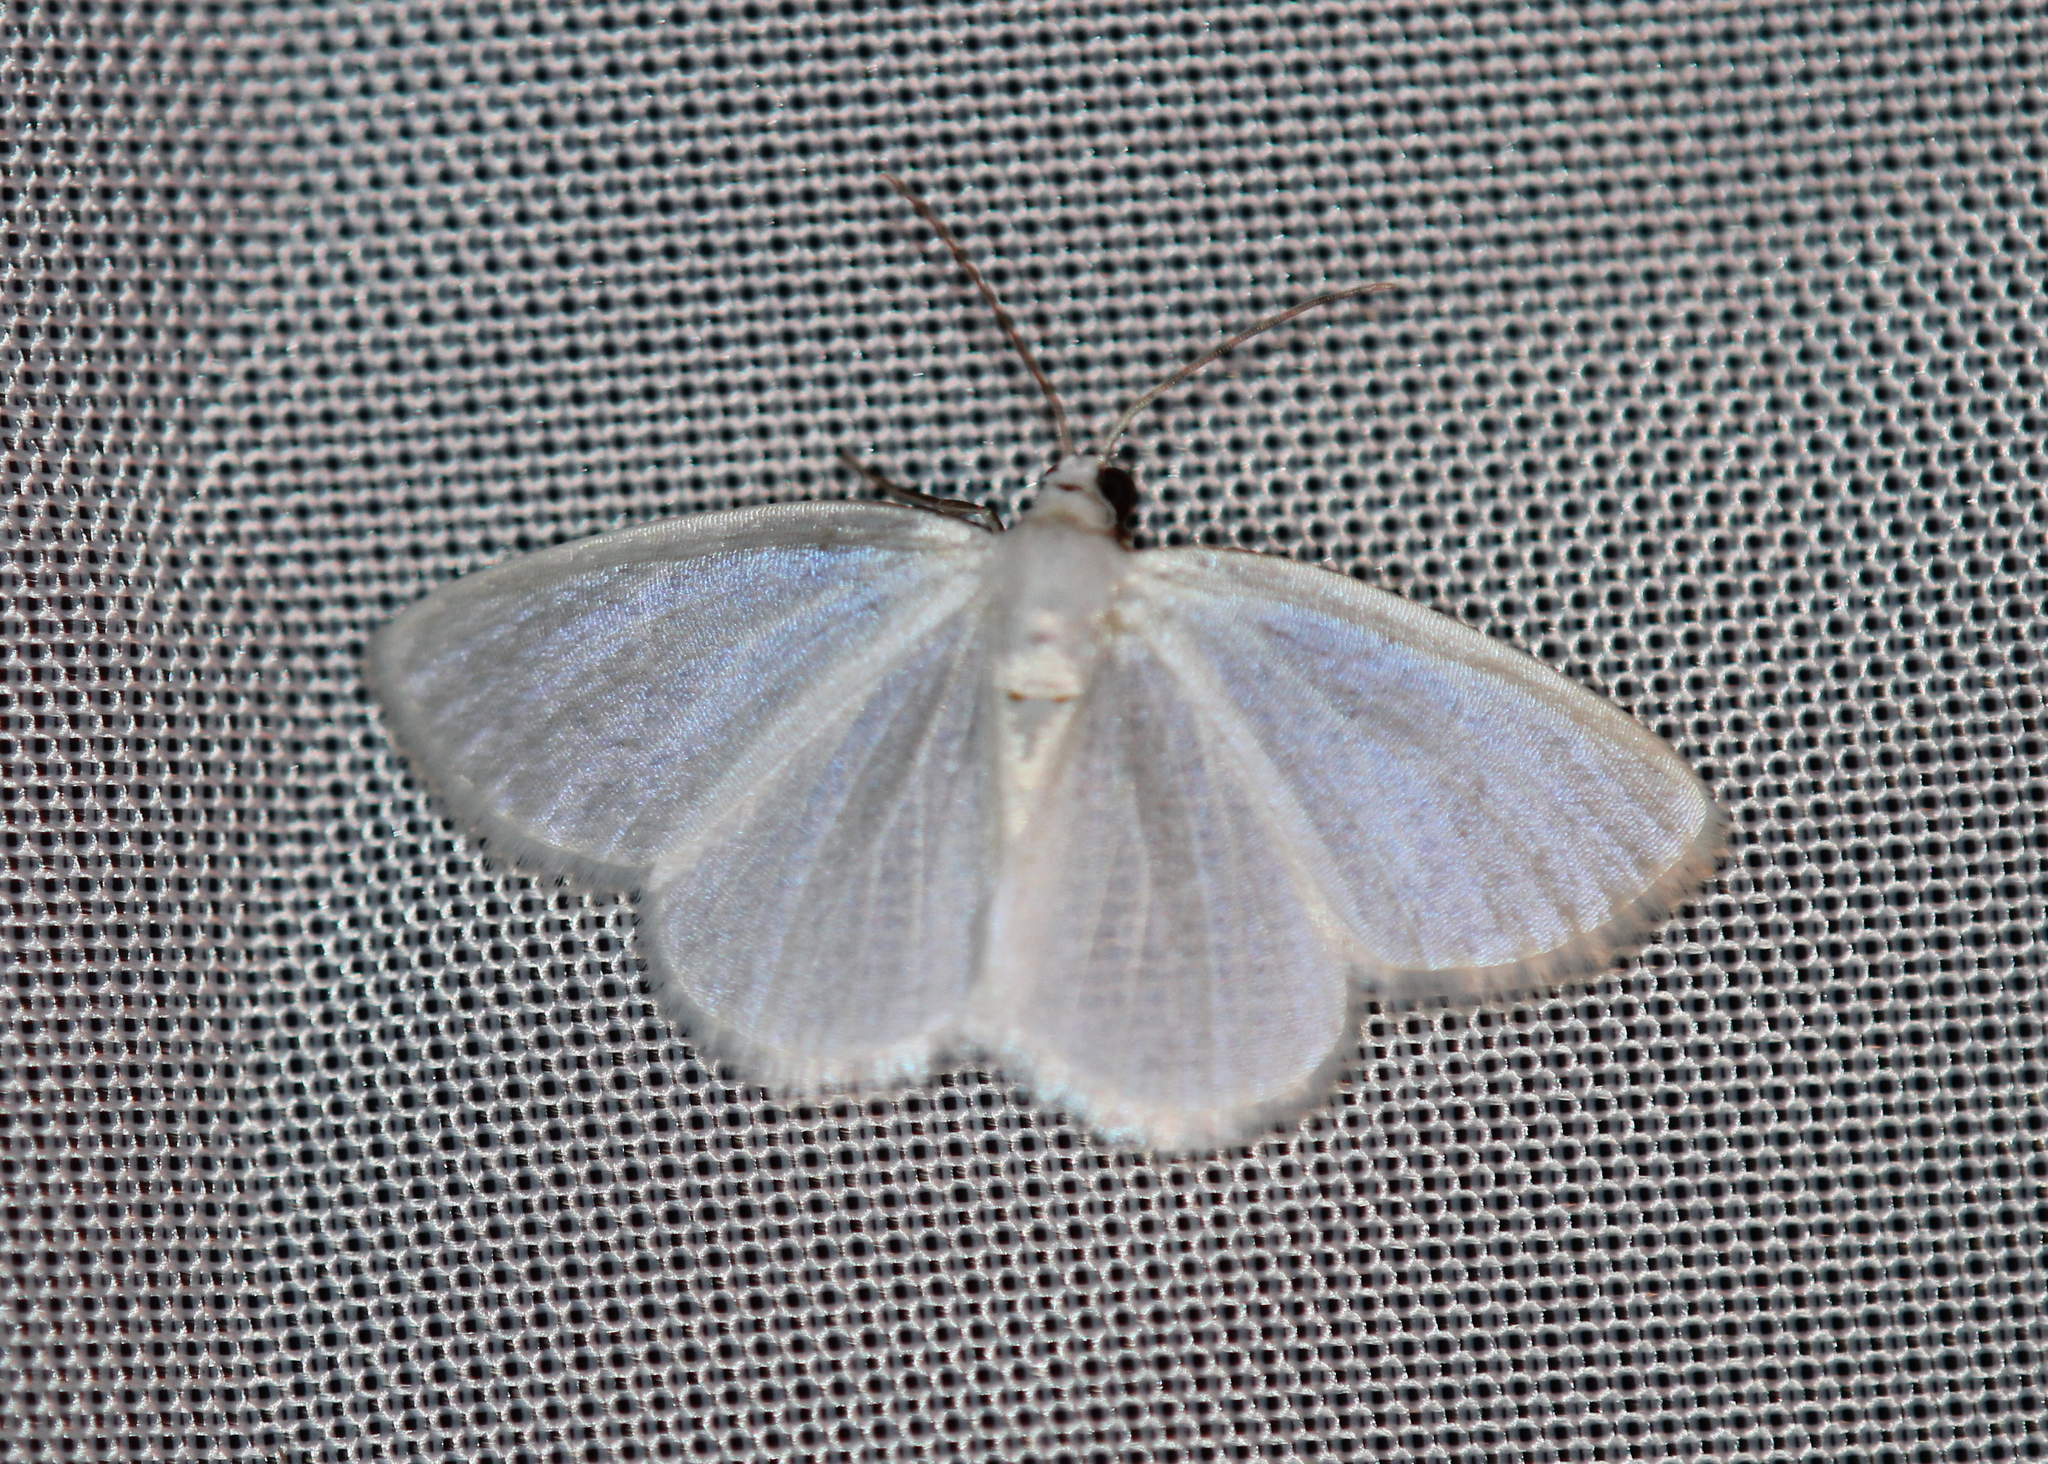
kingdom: Animalia
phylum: Arthropoda
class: Insecta
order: Lepidoptera
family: Geometridae
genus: Lomographa
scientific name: Lomographa vestaliata
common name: White spring moth
